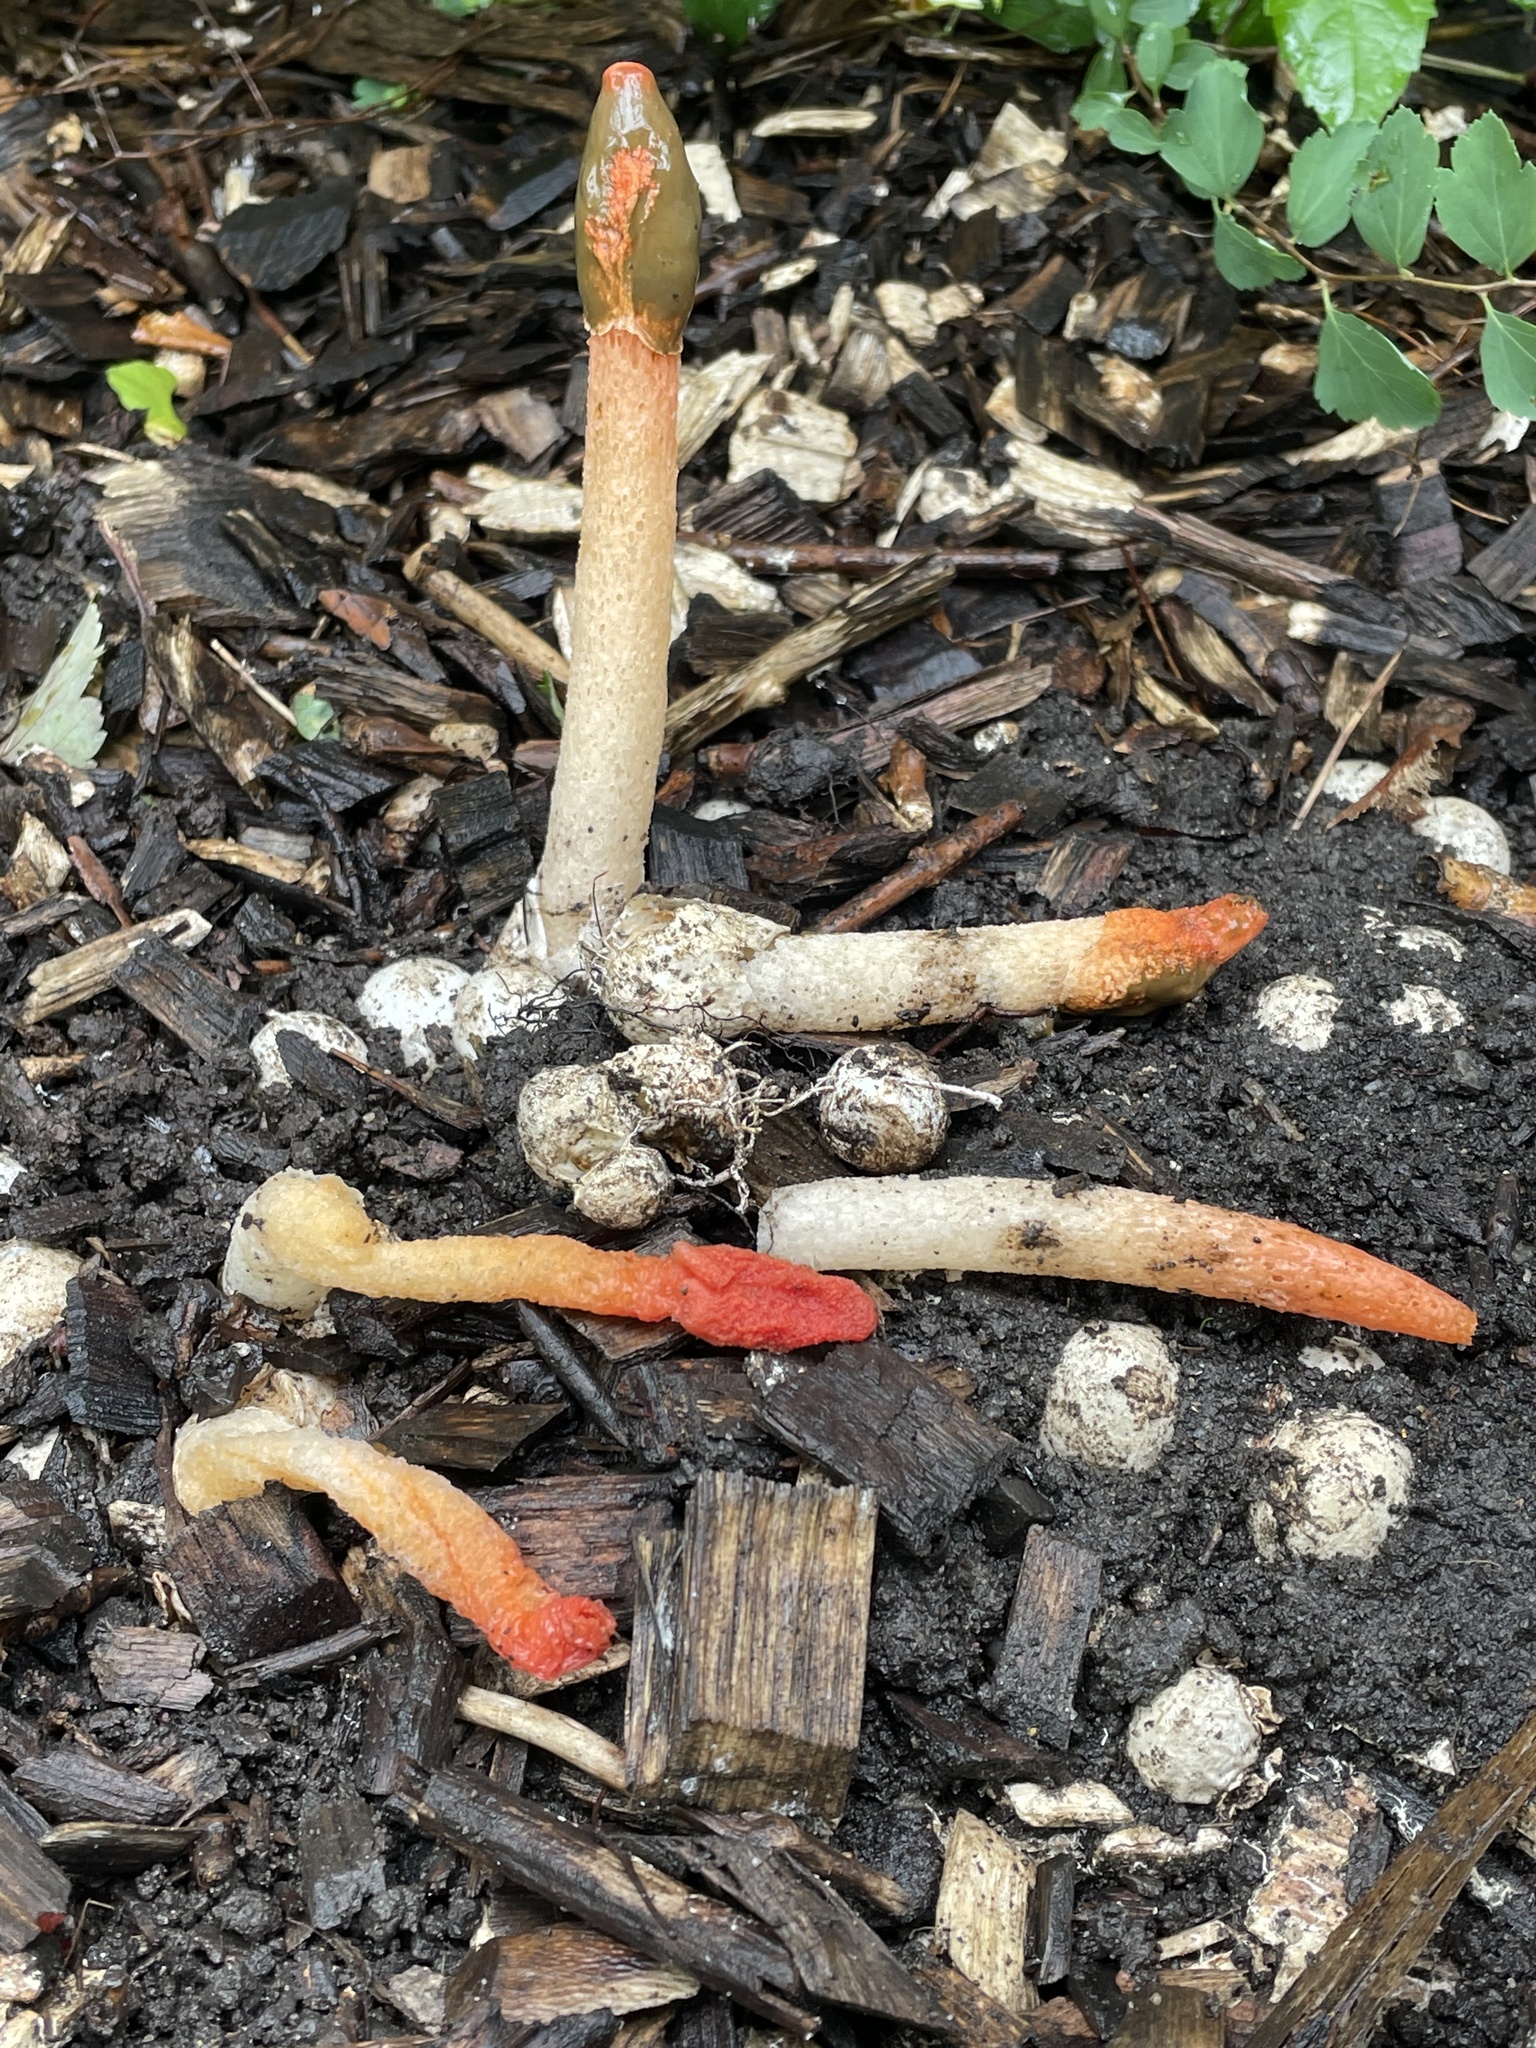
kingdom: Fungi
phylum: Basidiomycota
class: Agaricomycetes
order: Phallales
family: Phallaceae
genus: Phallus
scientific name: Phallus rugulosus
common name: Wrinkly stinkhorn
